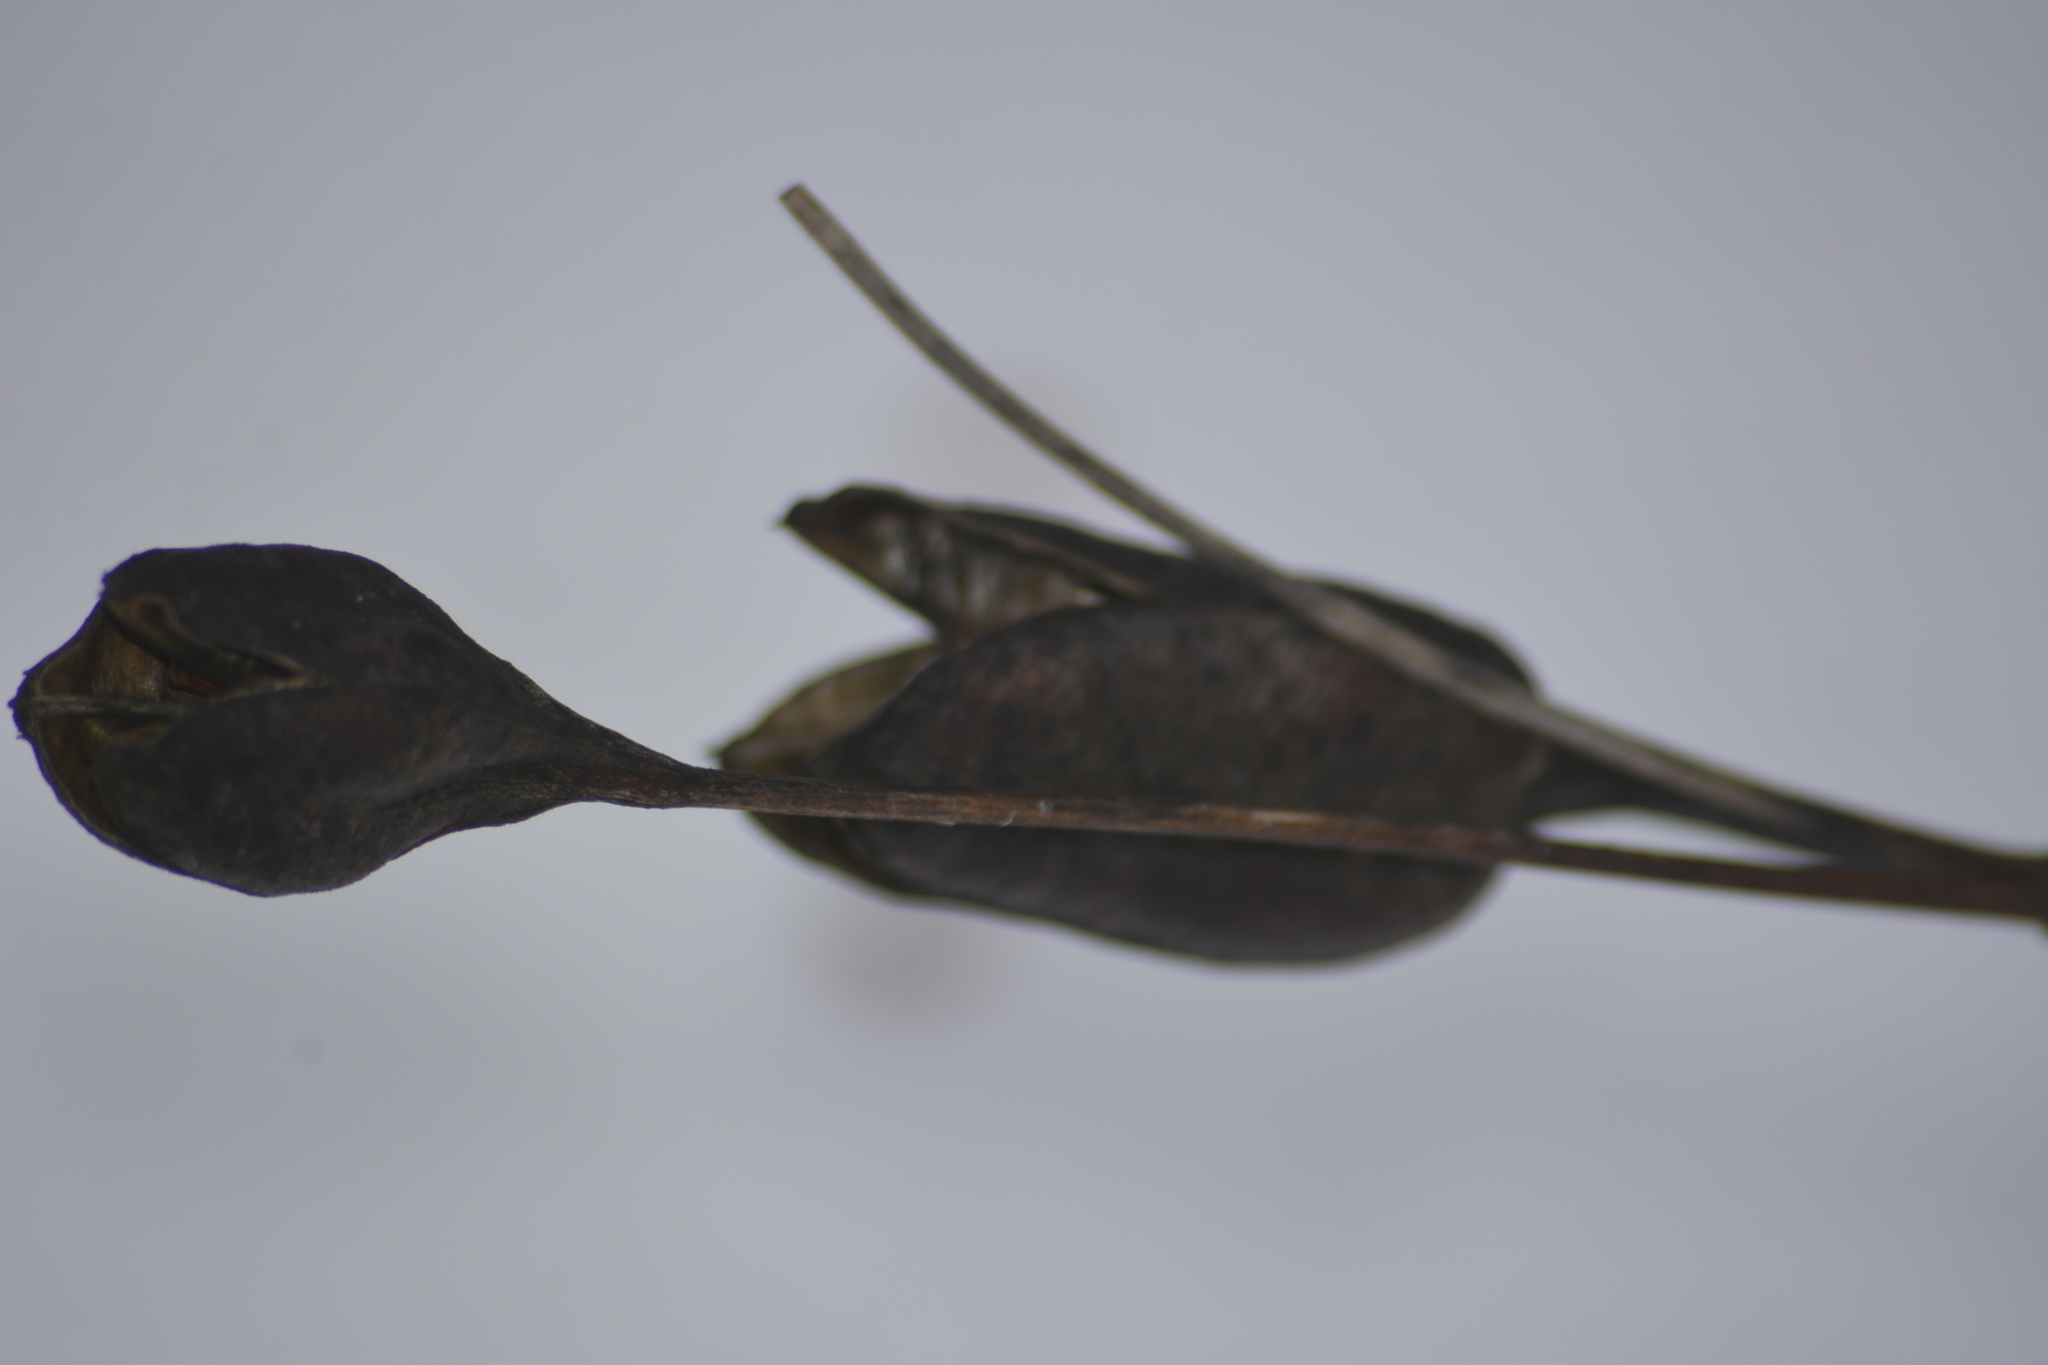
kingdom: Plantae
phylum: Tracheophyta
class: Liliopsida
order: Asparagales
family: Iridaceae
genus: Iris
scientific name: Iris sibirica
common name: Siberian iris
